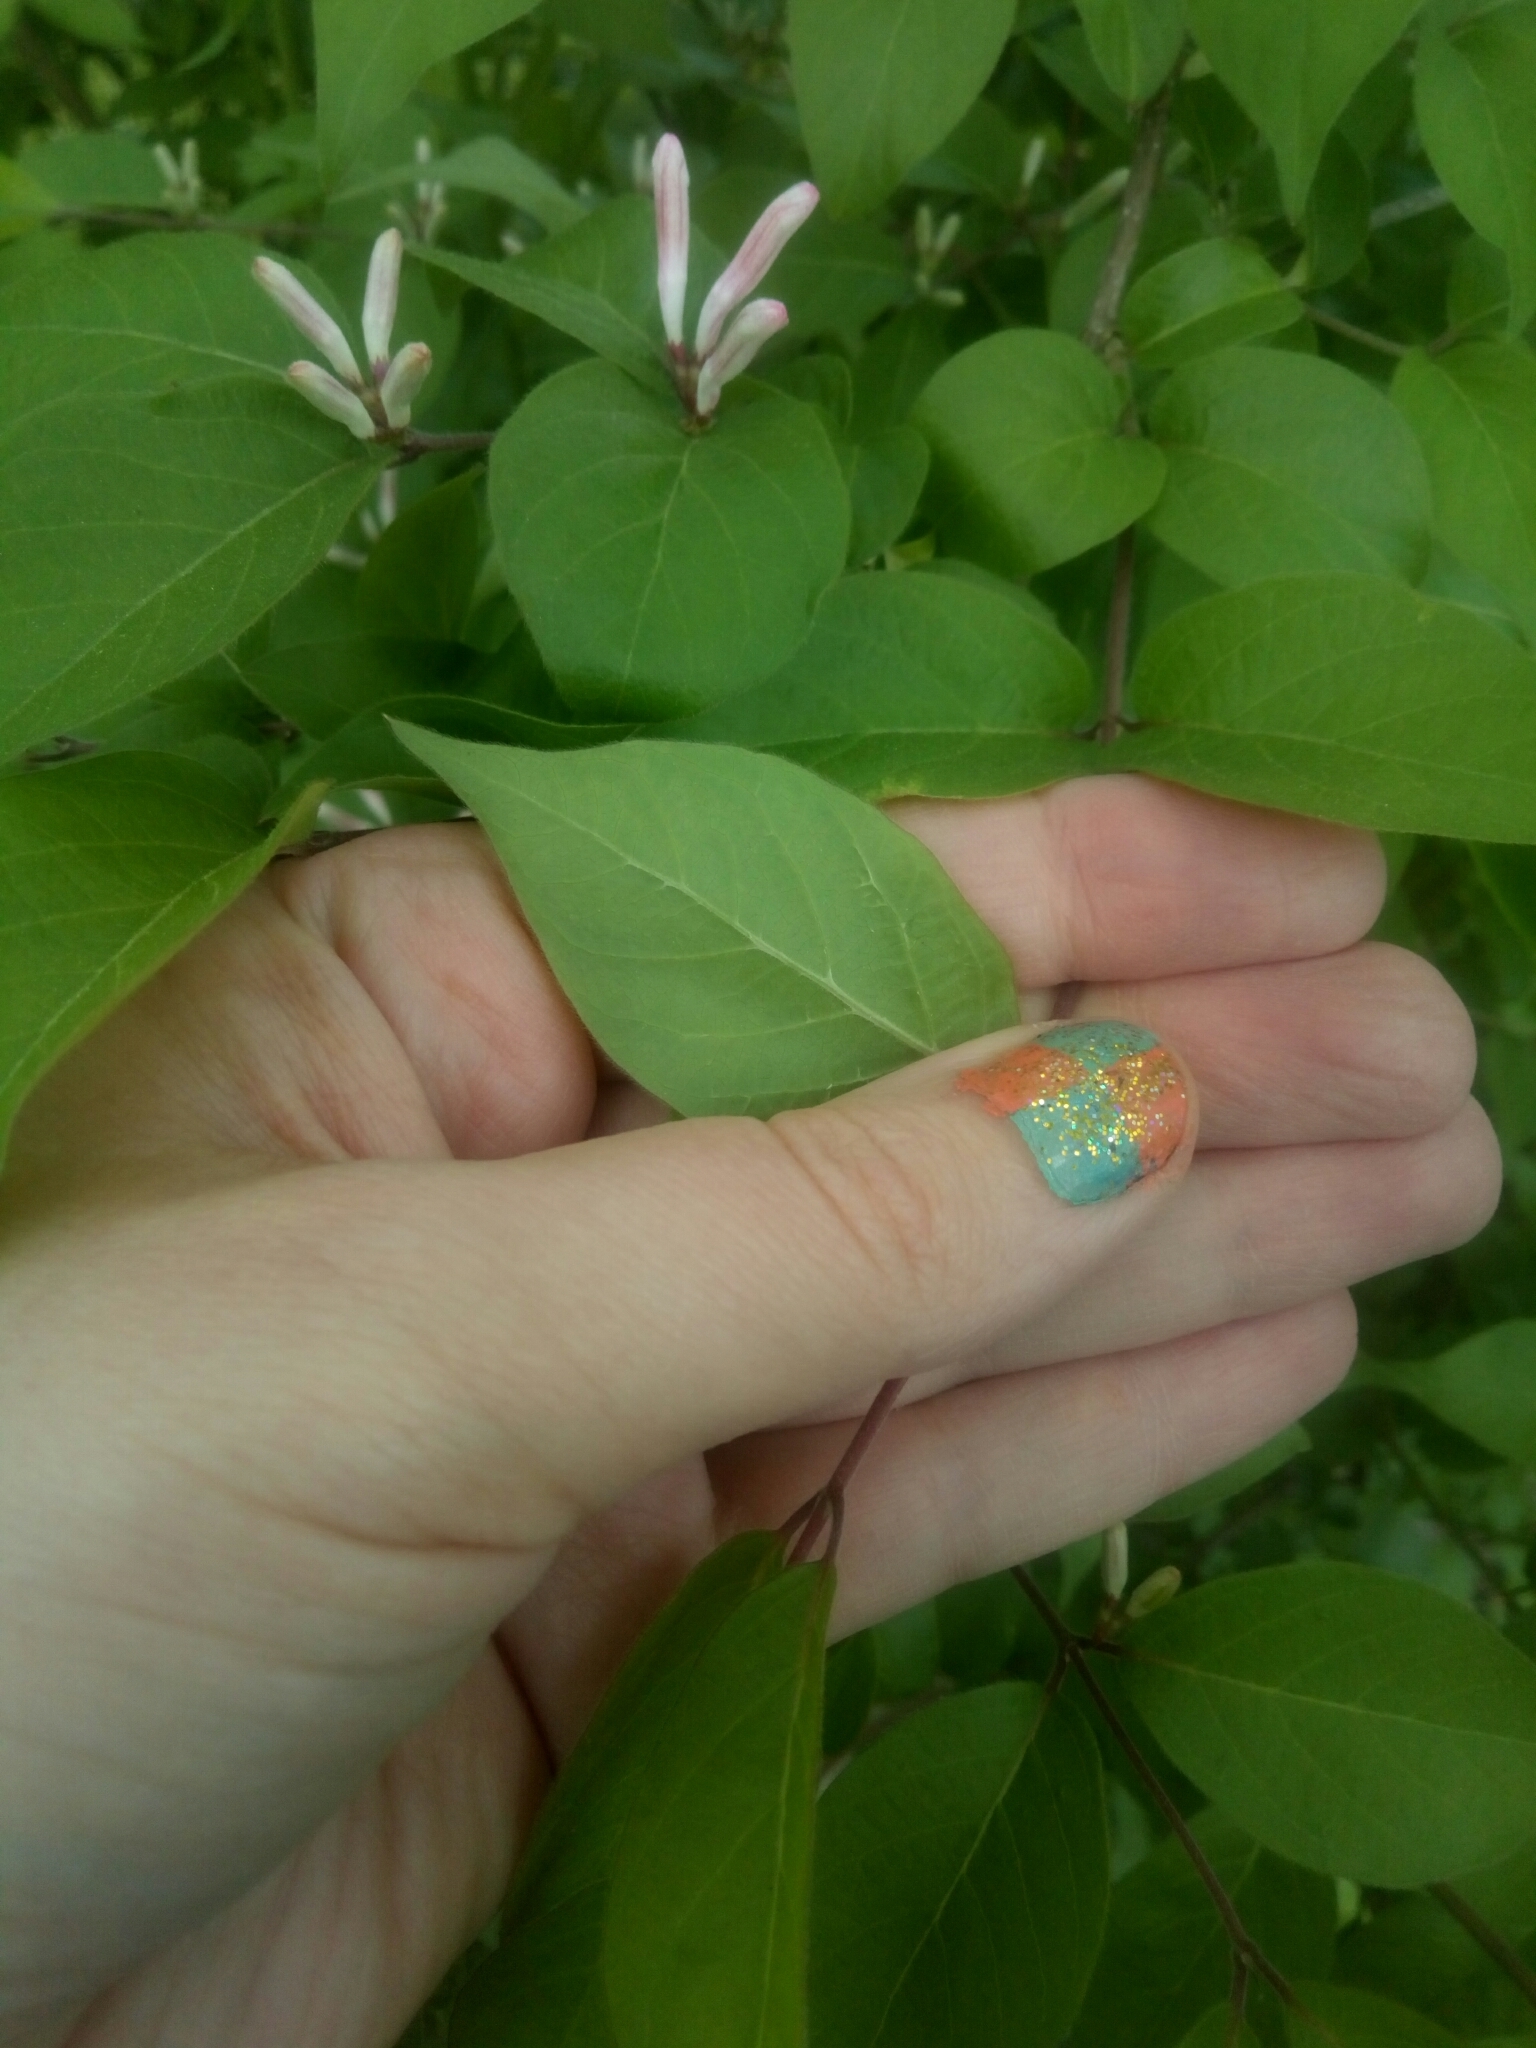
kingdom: Plantae
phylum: Tracheophyta
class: Magnoliopsida
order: Dipsacales
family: Caprifoliaceae
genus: Lonicera
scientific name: Lonicera maackii
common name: Amur honeysuckle
